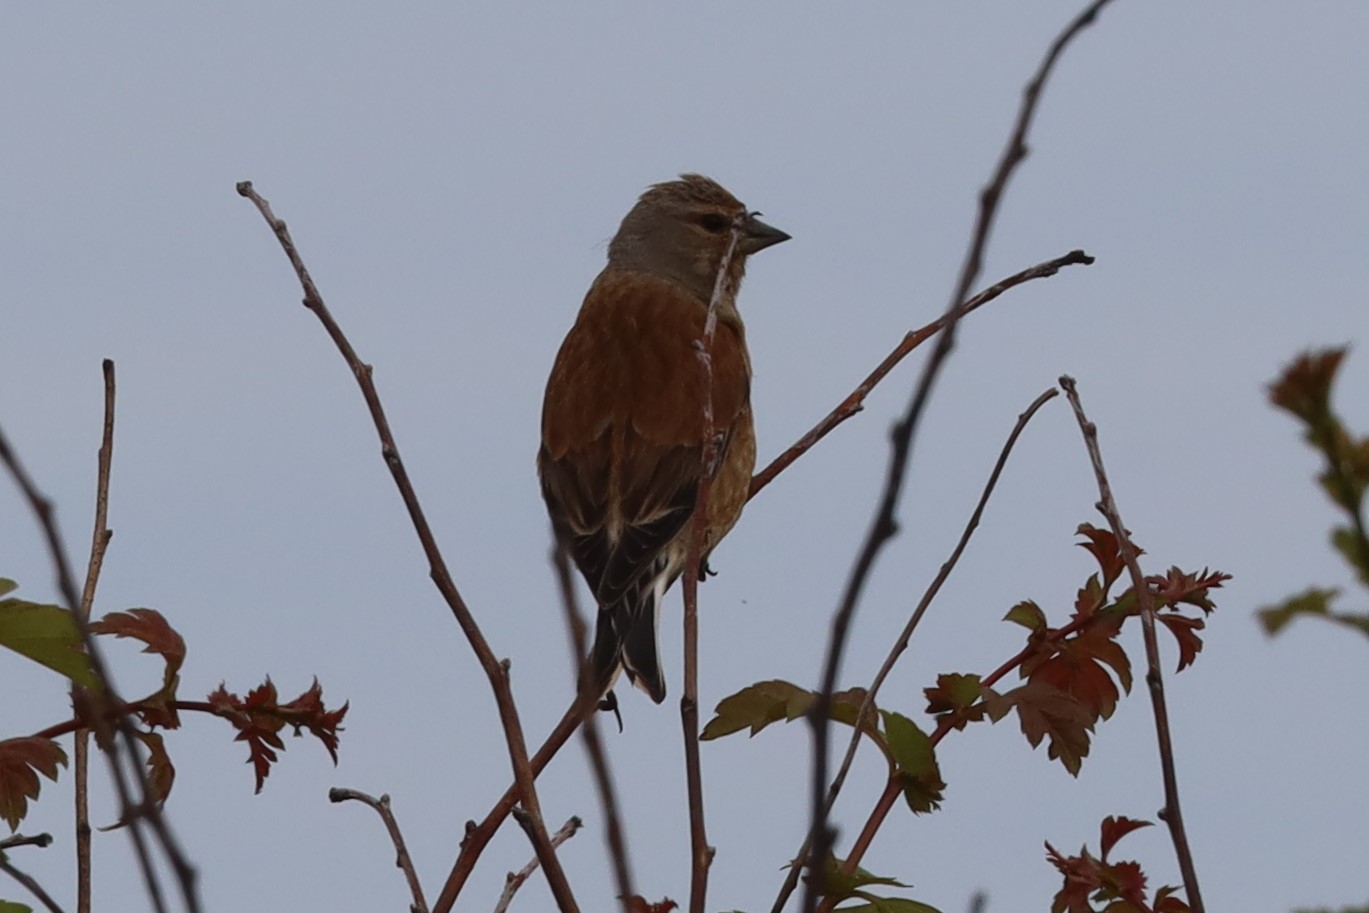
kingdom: Animalia
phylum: Chordata
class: Aves
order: Passeriformes
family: Fringillidae
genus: Linaria
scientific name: Linaria cannabina
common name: Common linnet
